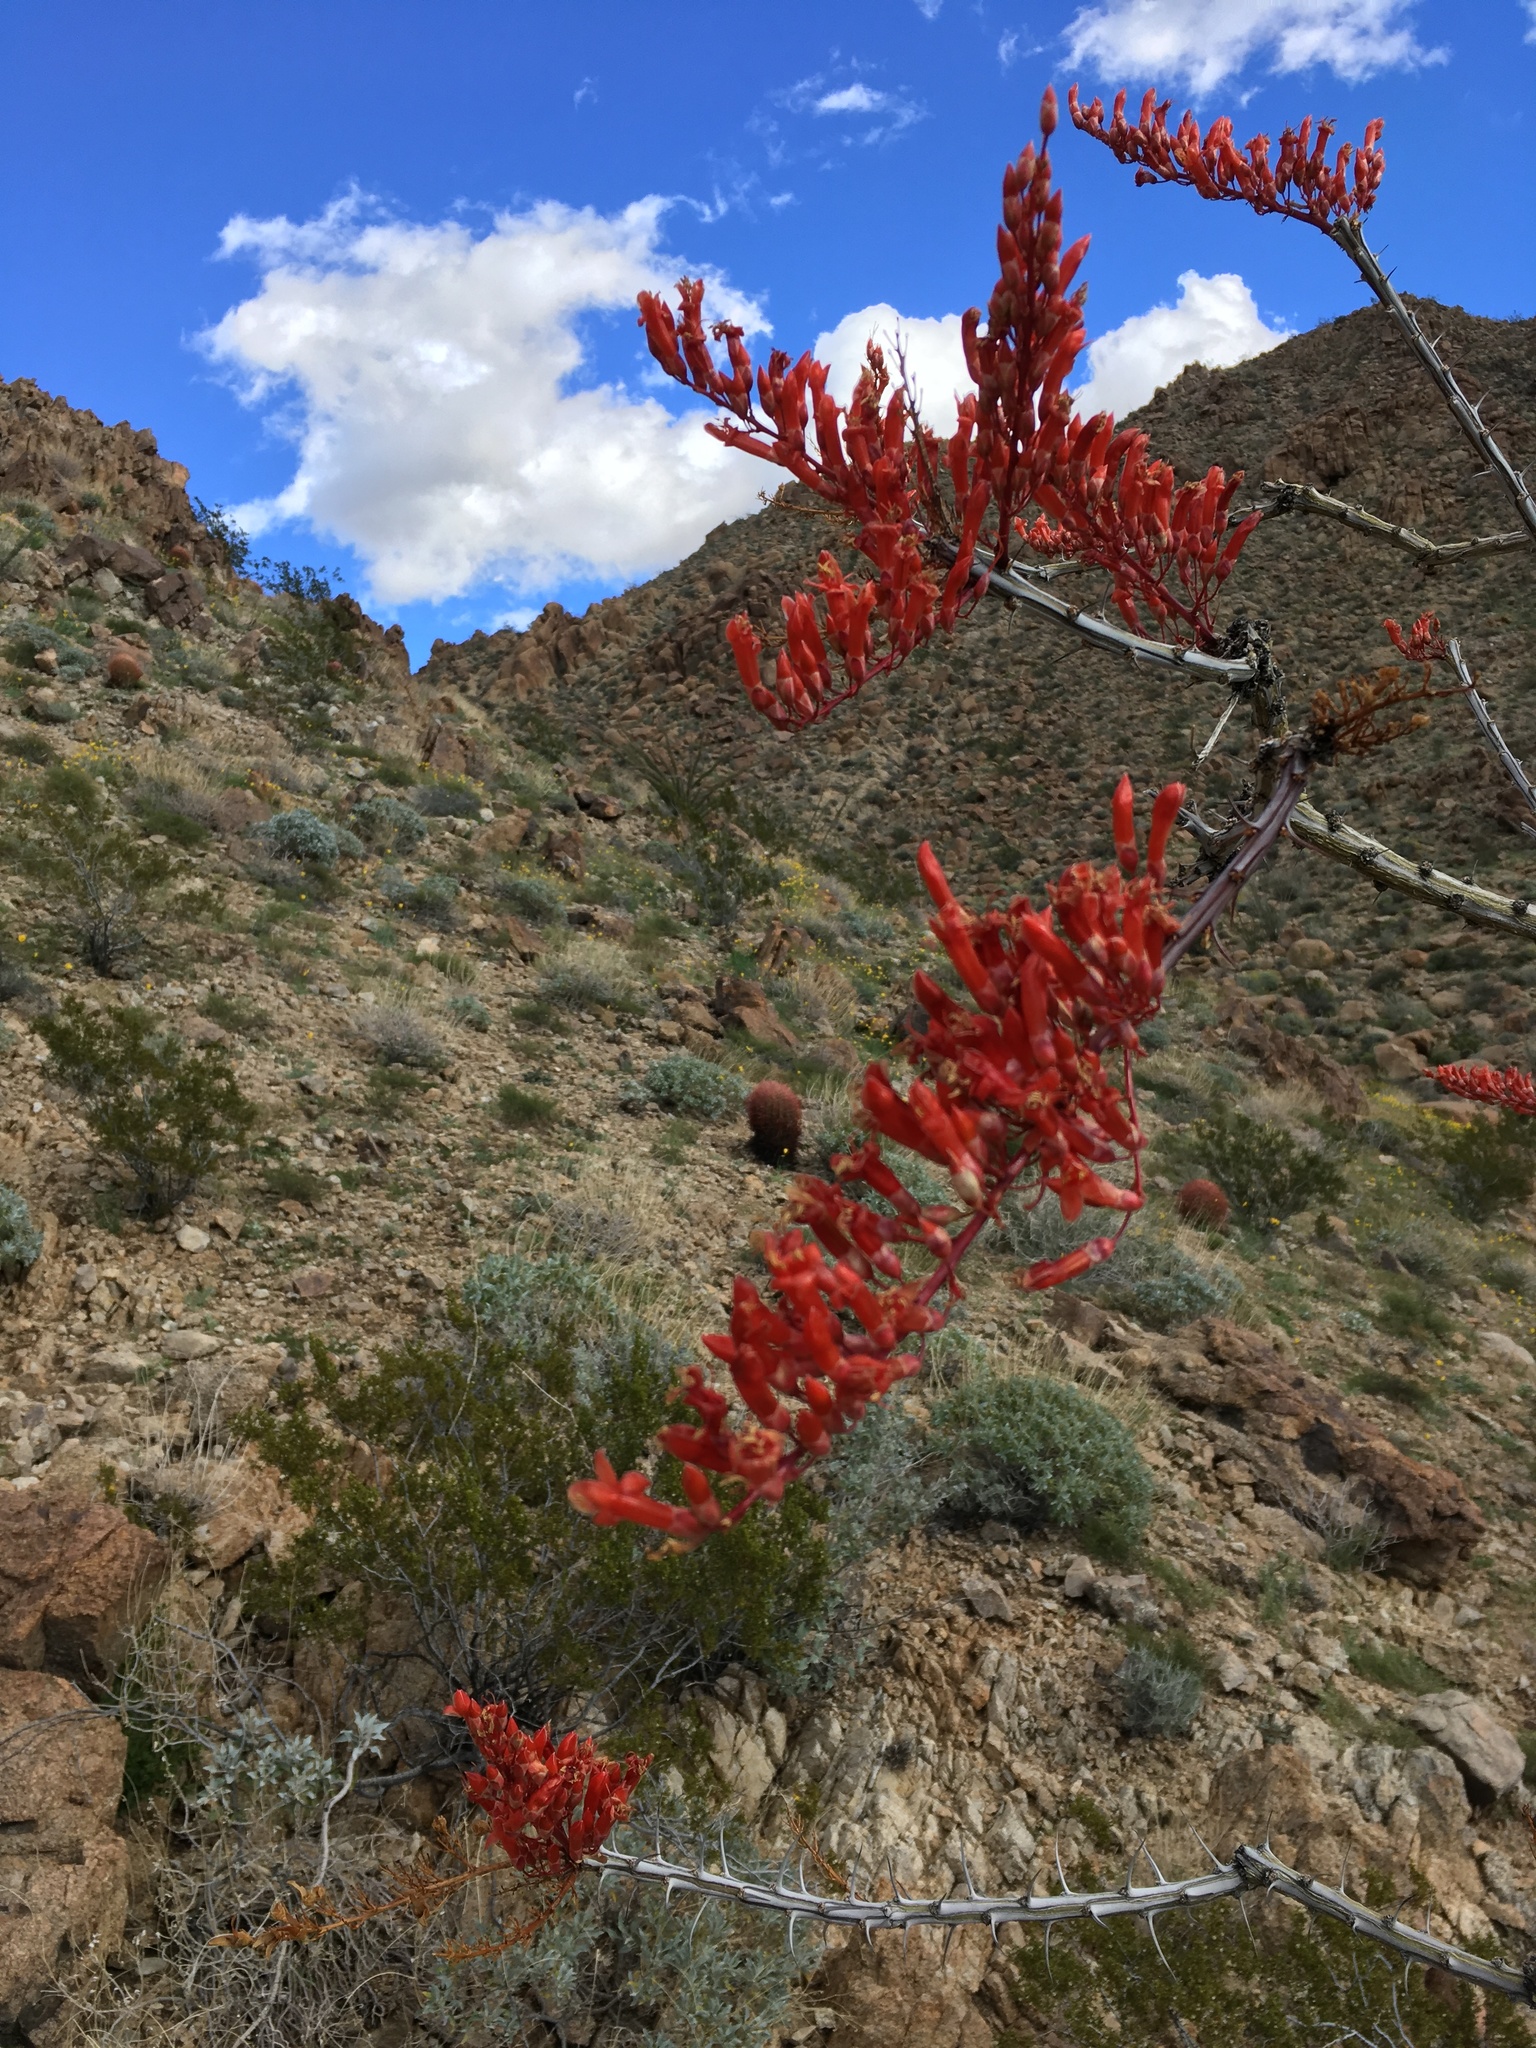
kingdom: Plantae
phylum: Tracheophyta
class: Magnoliopsida
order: Ericales
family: Fouquieriaceae
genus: Fouquieria
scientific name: Fouquieria splendens
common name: Vine-cactus
